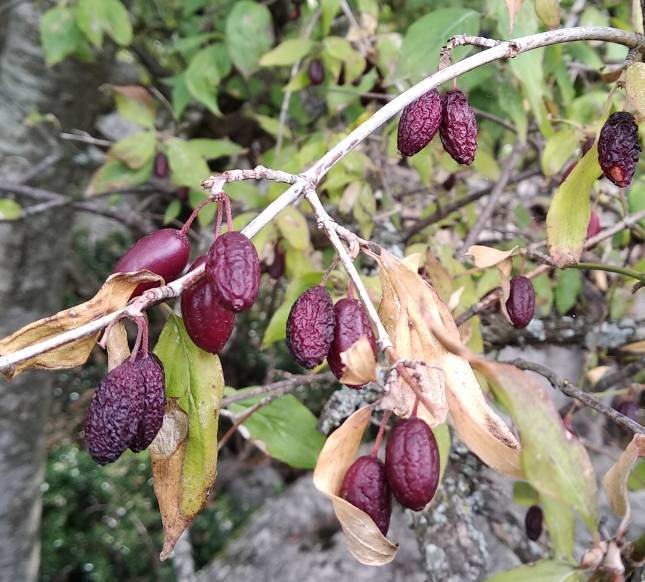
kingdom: Plantae
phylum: Tracheophyta
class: Magnoliopsida
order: Cornales
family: Cornaceae
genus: Cornus
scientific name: Cornus mas
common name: Cornelian-cherry
